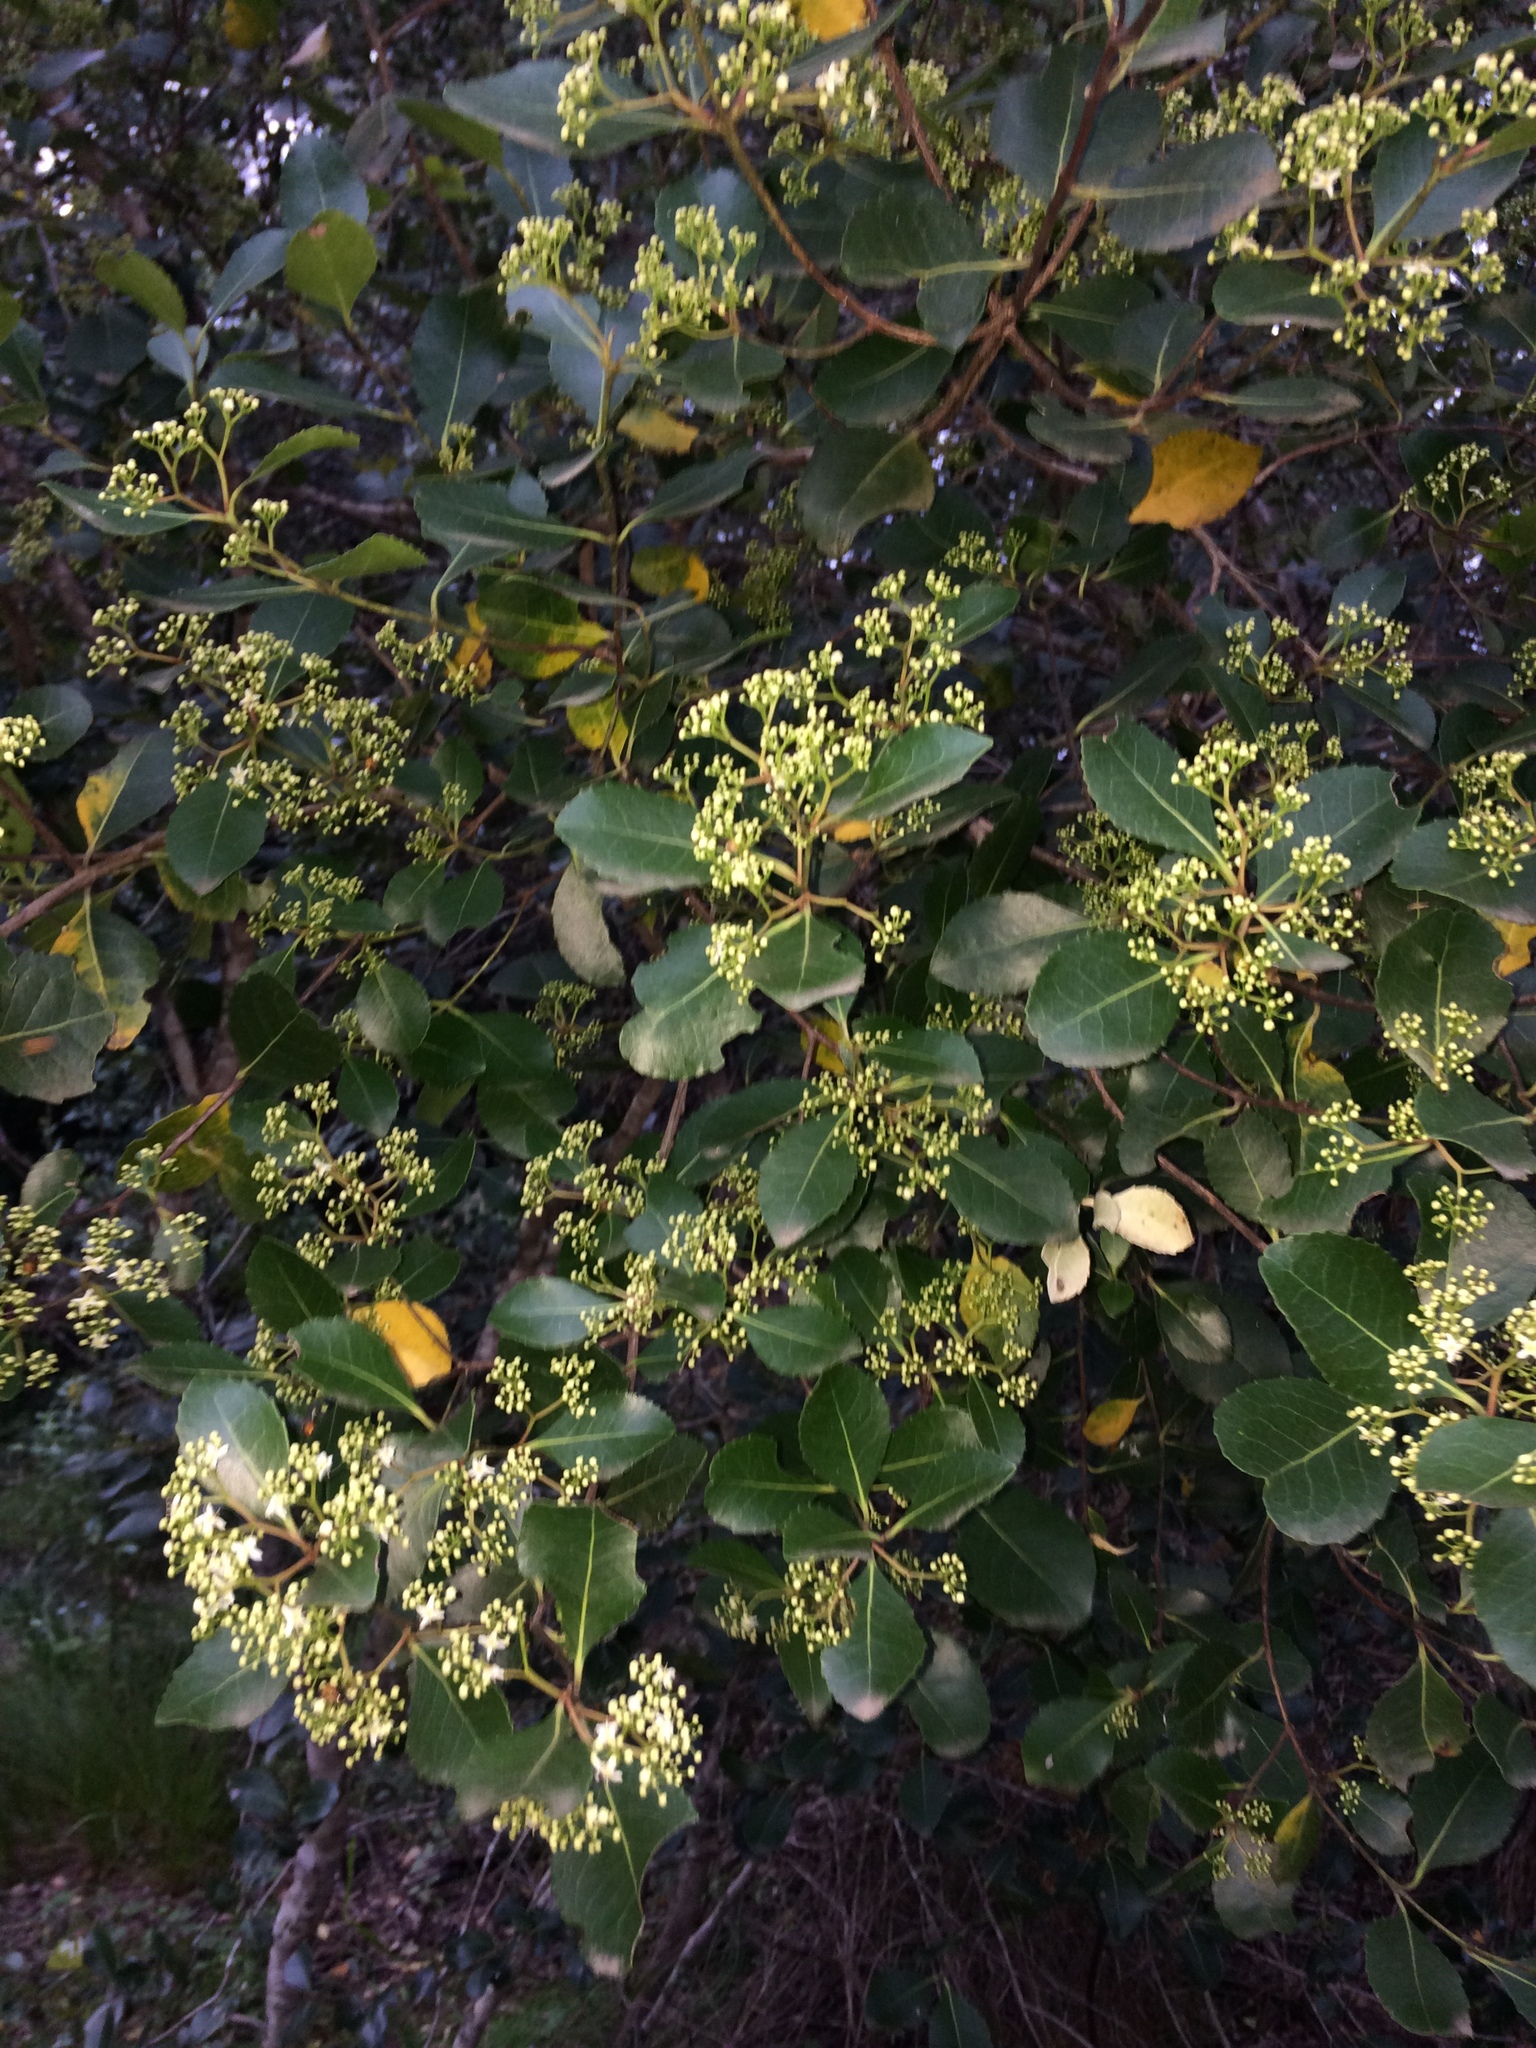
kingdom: Plantae
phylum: Tracheophyta
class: Magnoliopsida
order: Celastrales
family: Celastraceae
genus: Cassine
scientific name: Cassine peragua
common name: Cape saffron
